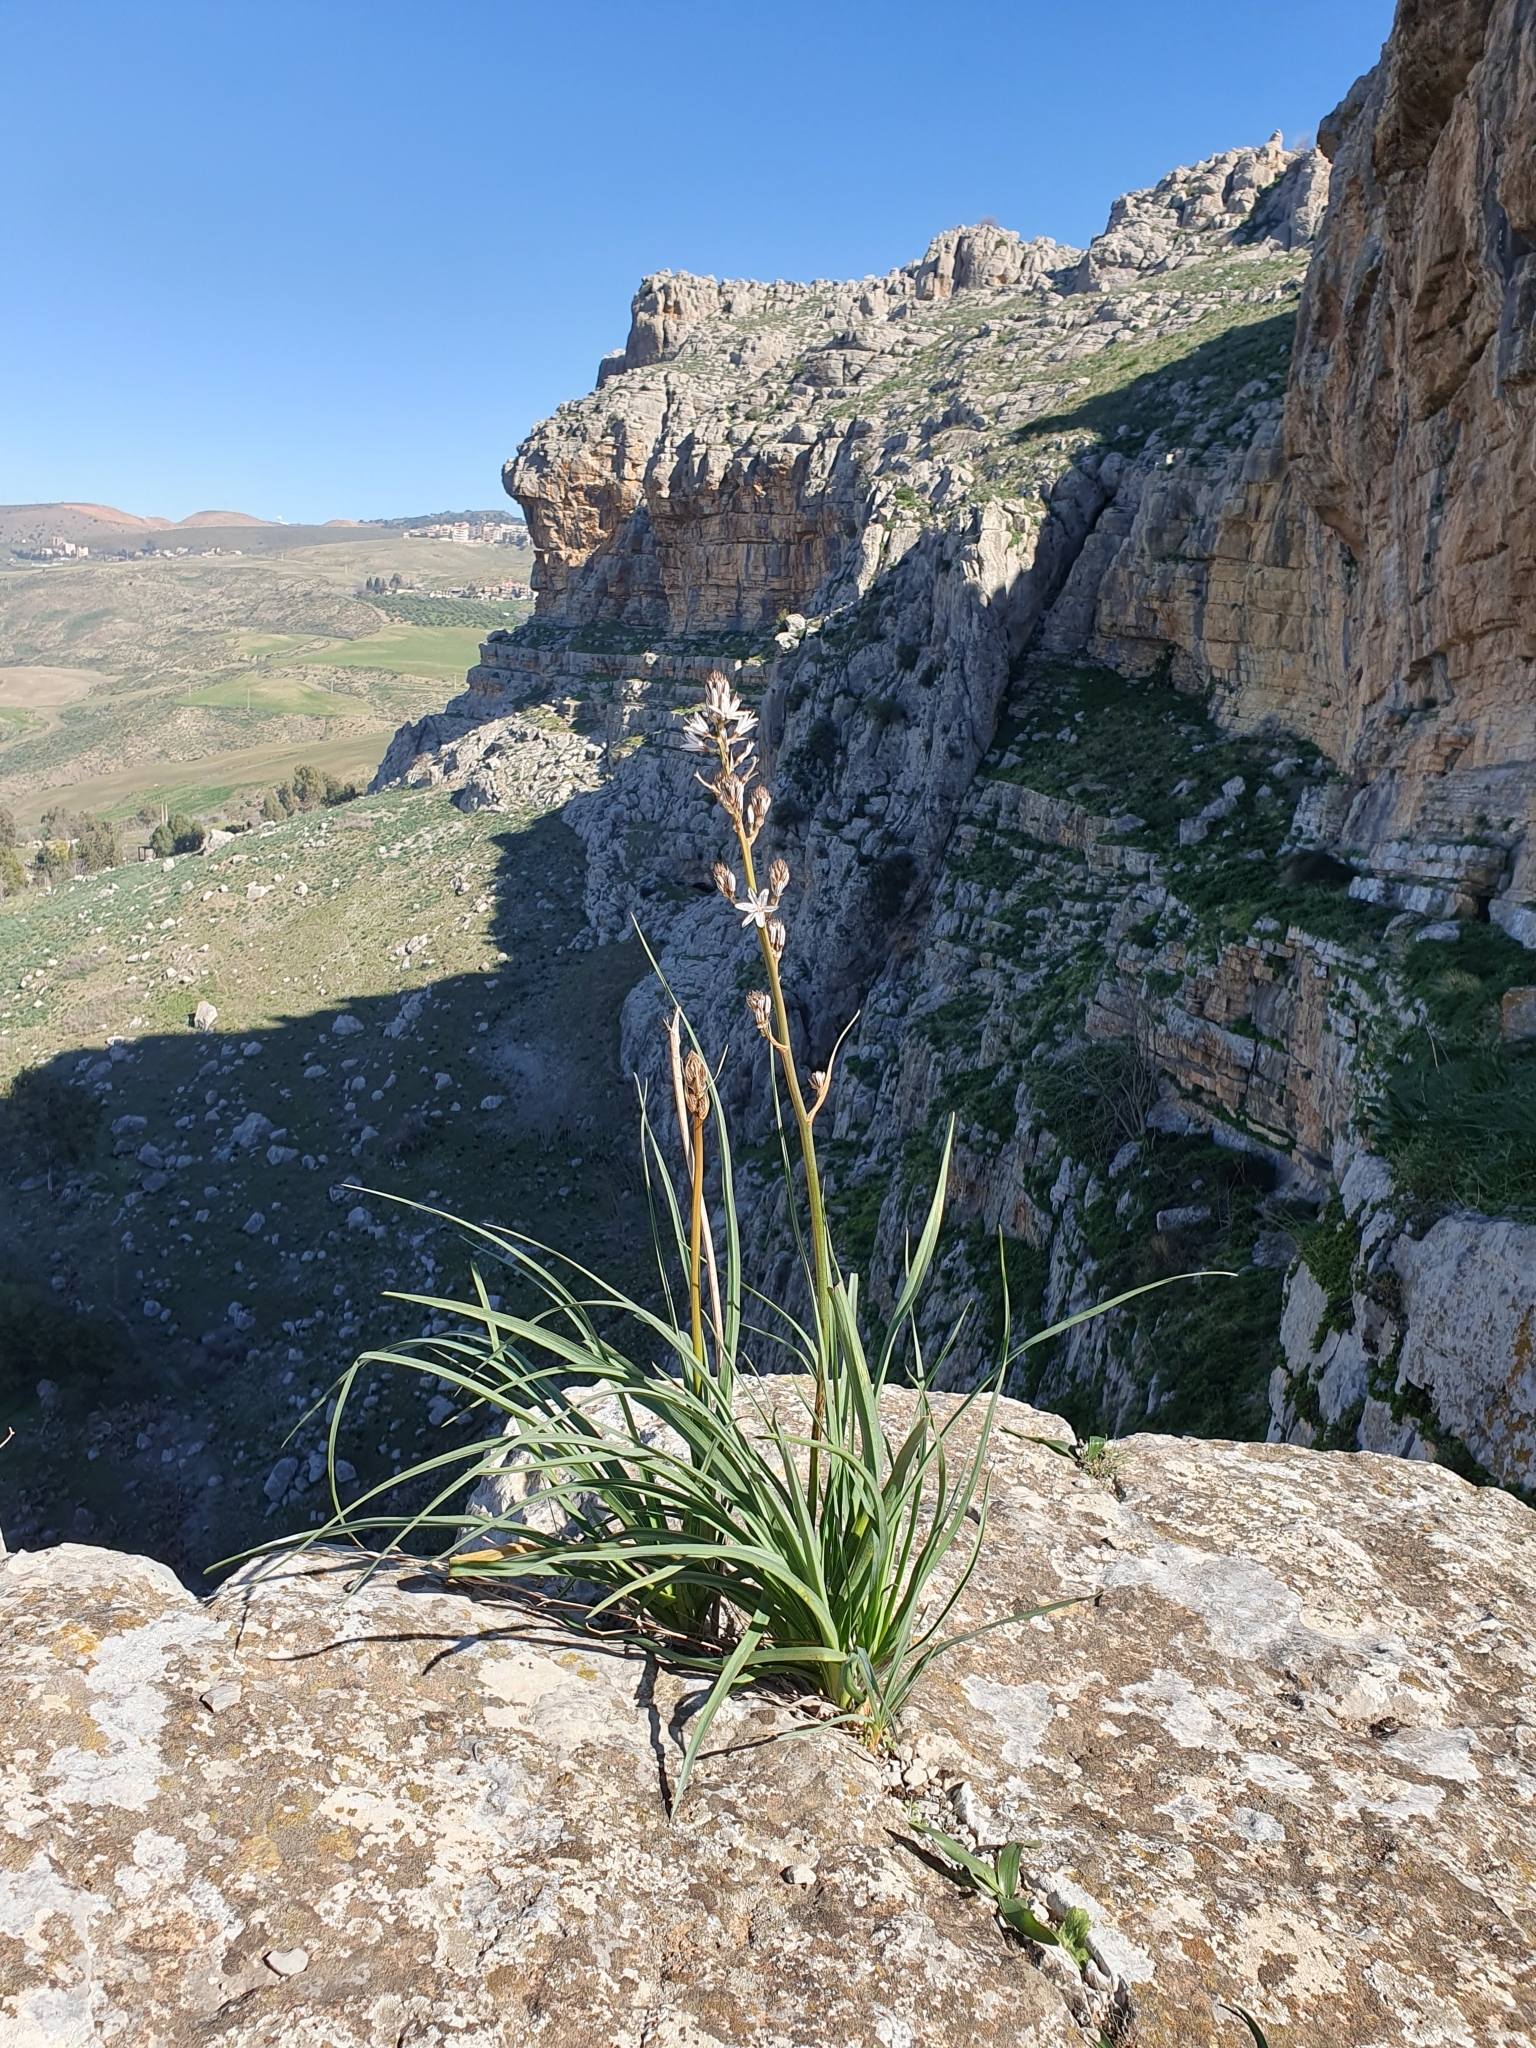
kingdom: Plantae
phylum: Tracheophyta
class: Liliopsida
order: Asparagales
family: Asphodelaceae
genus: Asphodelus
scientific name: Asphodelus ramosus
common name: Silverrod
